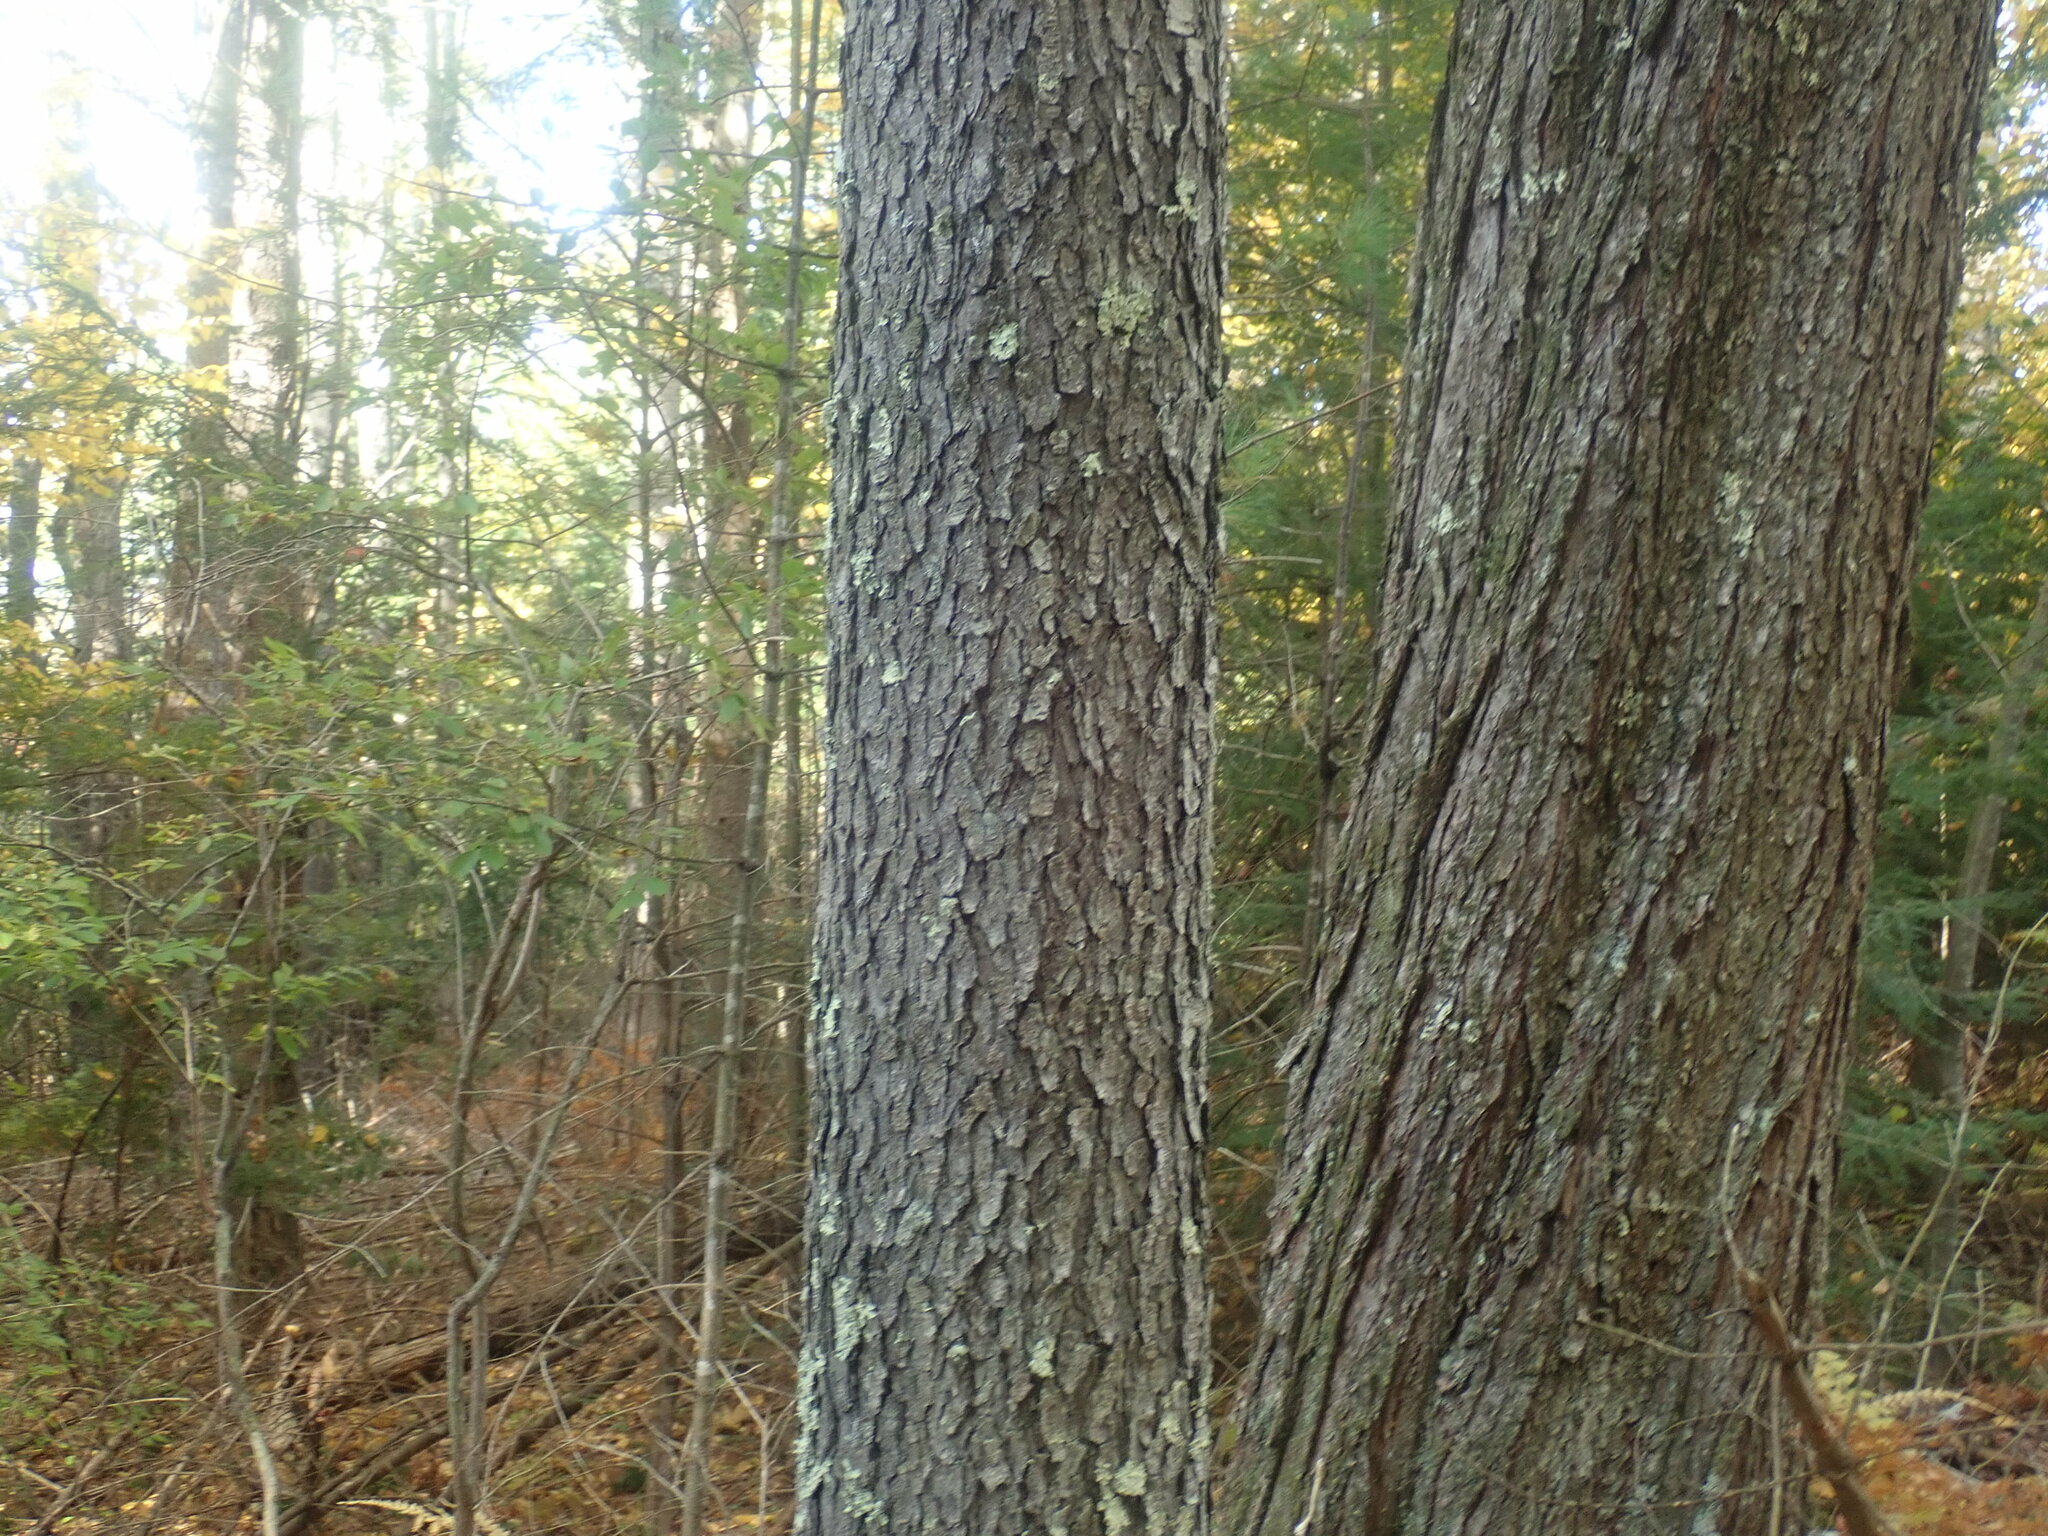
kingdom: Plantae
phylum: Tracheophyta
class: Magnoliopsida
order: Rosales
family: Rosaceae
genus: Prunus
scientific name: Prunus serotina
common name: Black cherry
